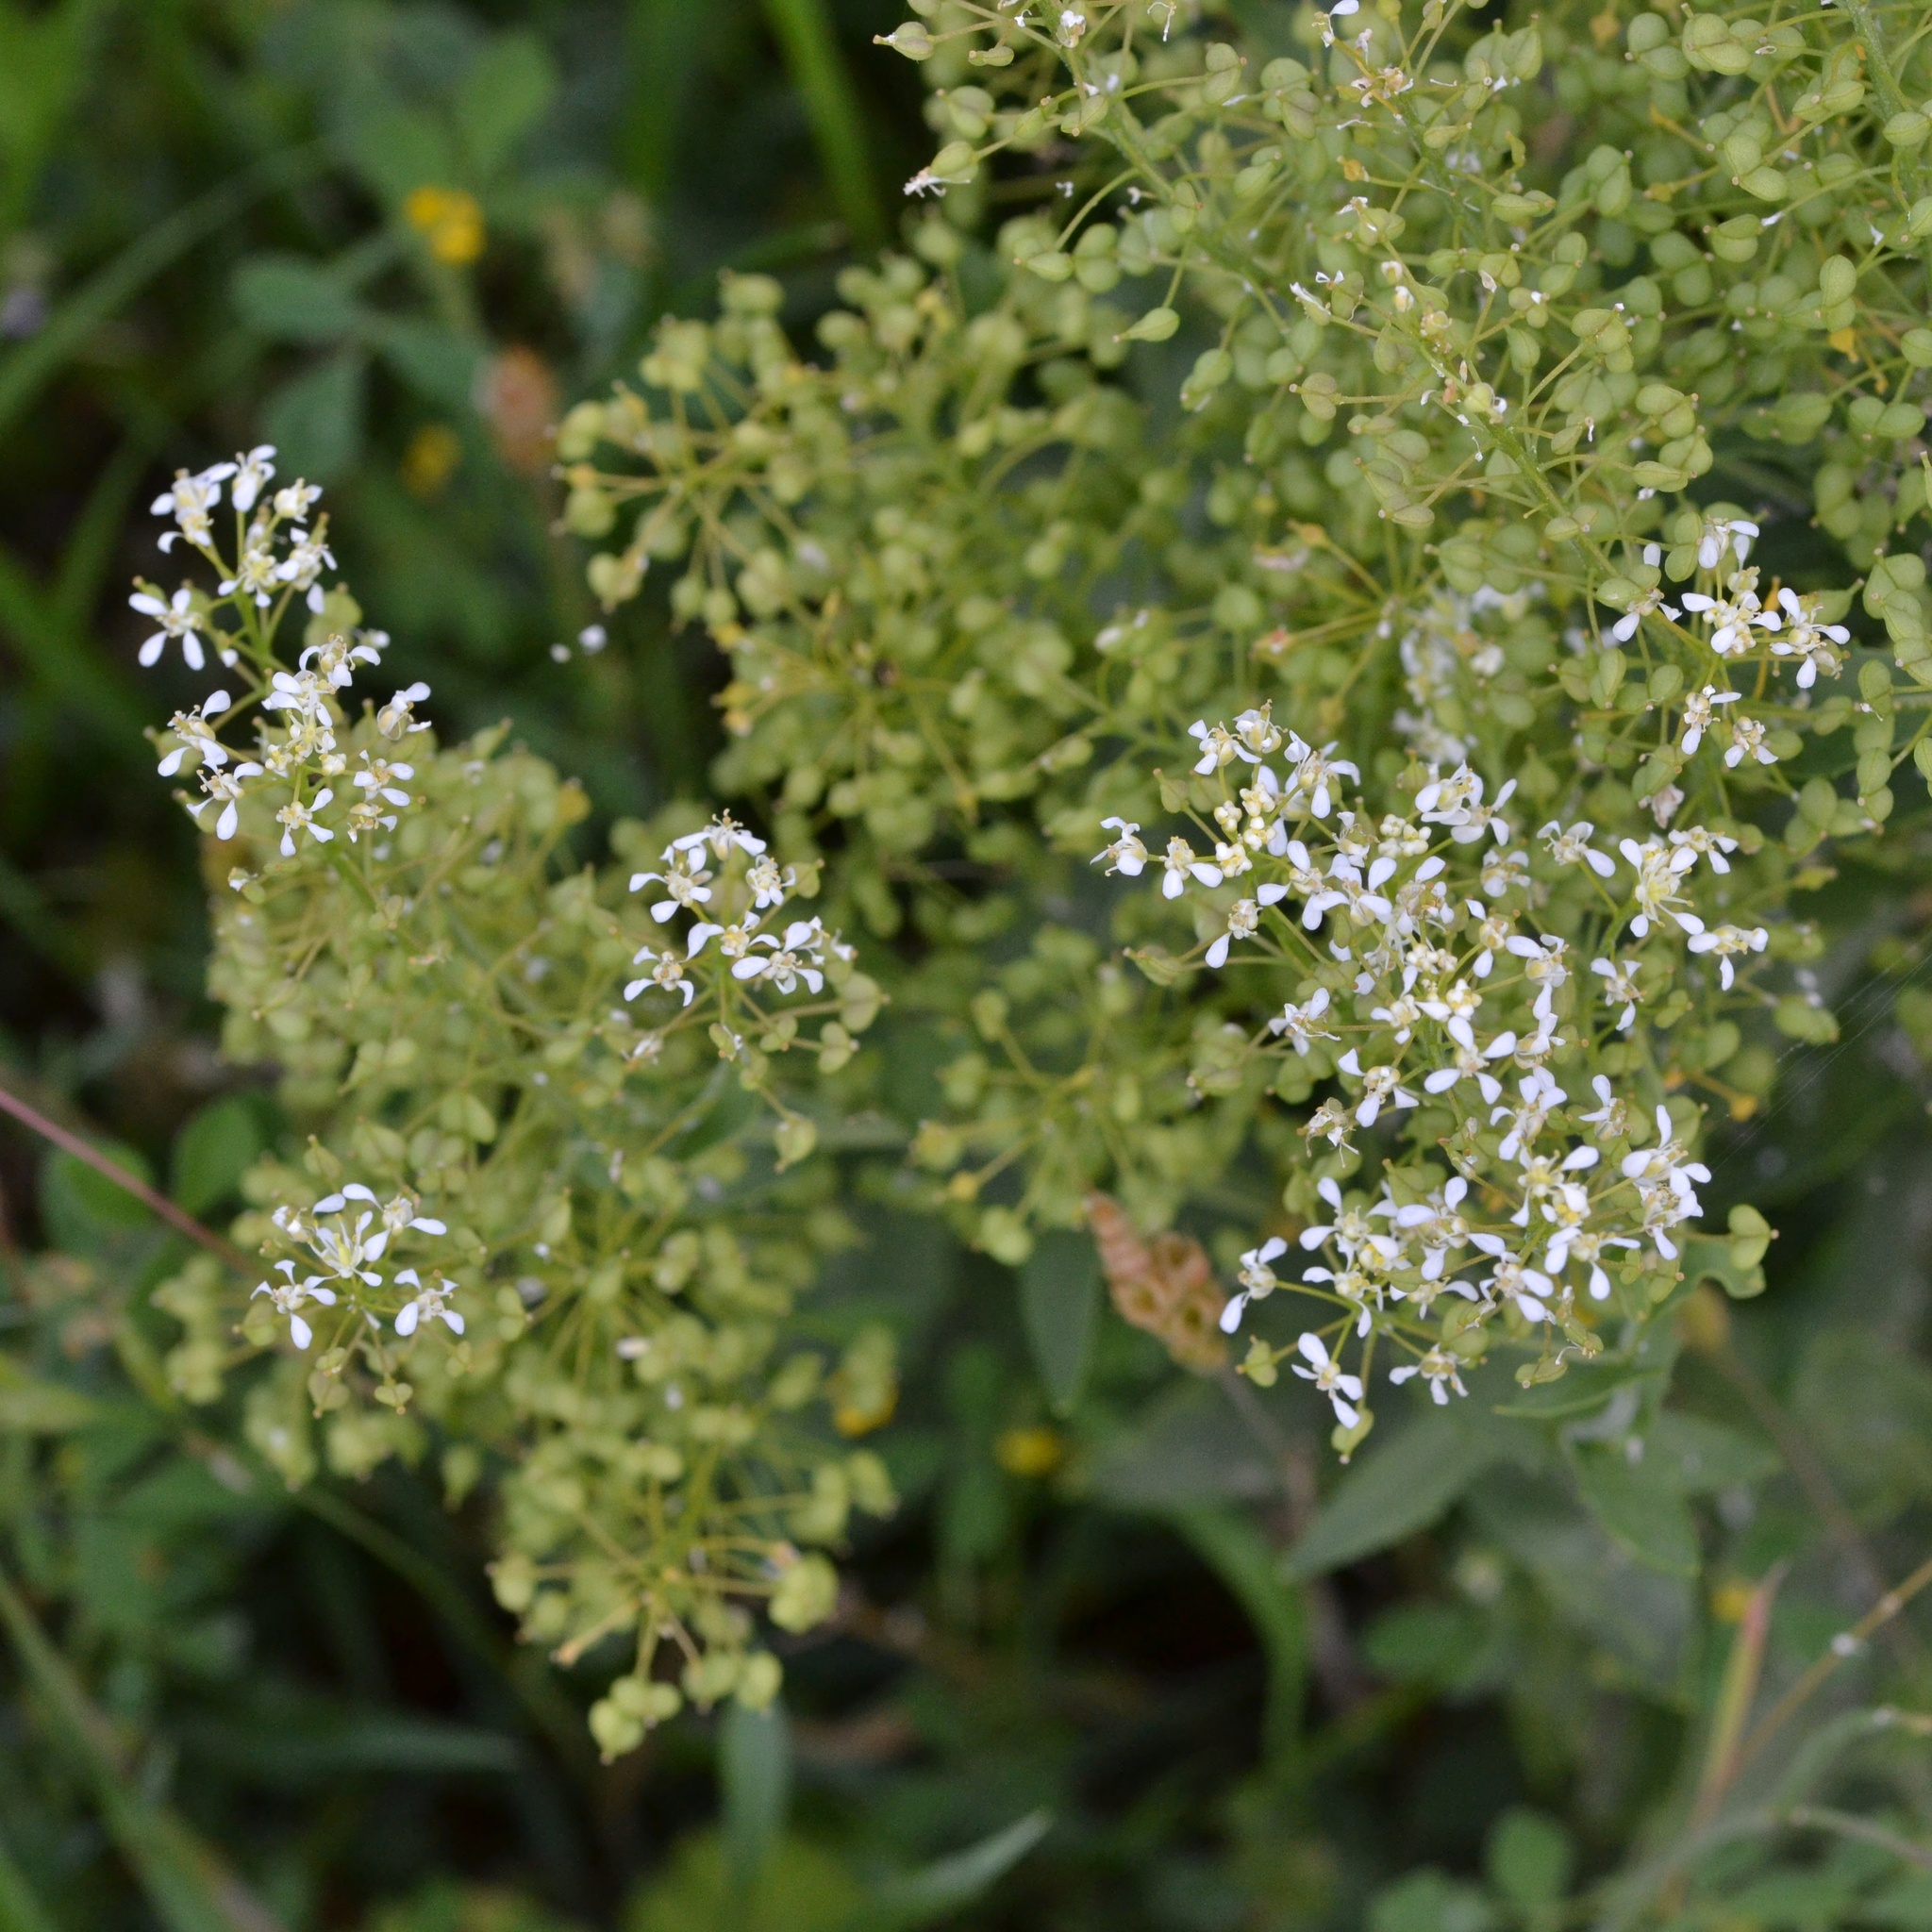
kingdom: Plantae
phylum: Tracheophyta
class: Magnoliopsida
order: Brassicales
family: Brassicaceae
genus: Lepidium
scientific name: Lepidium draba
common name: Hoary cress
